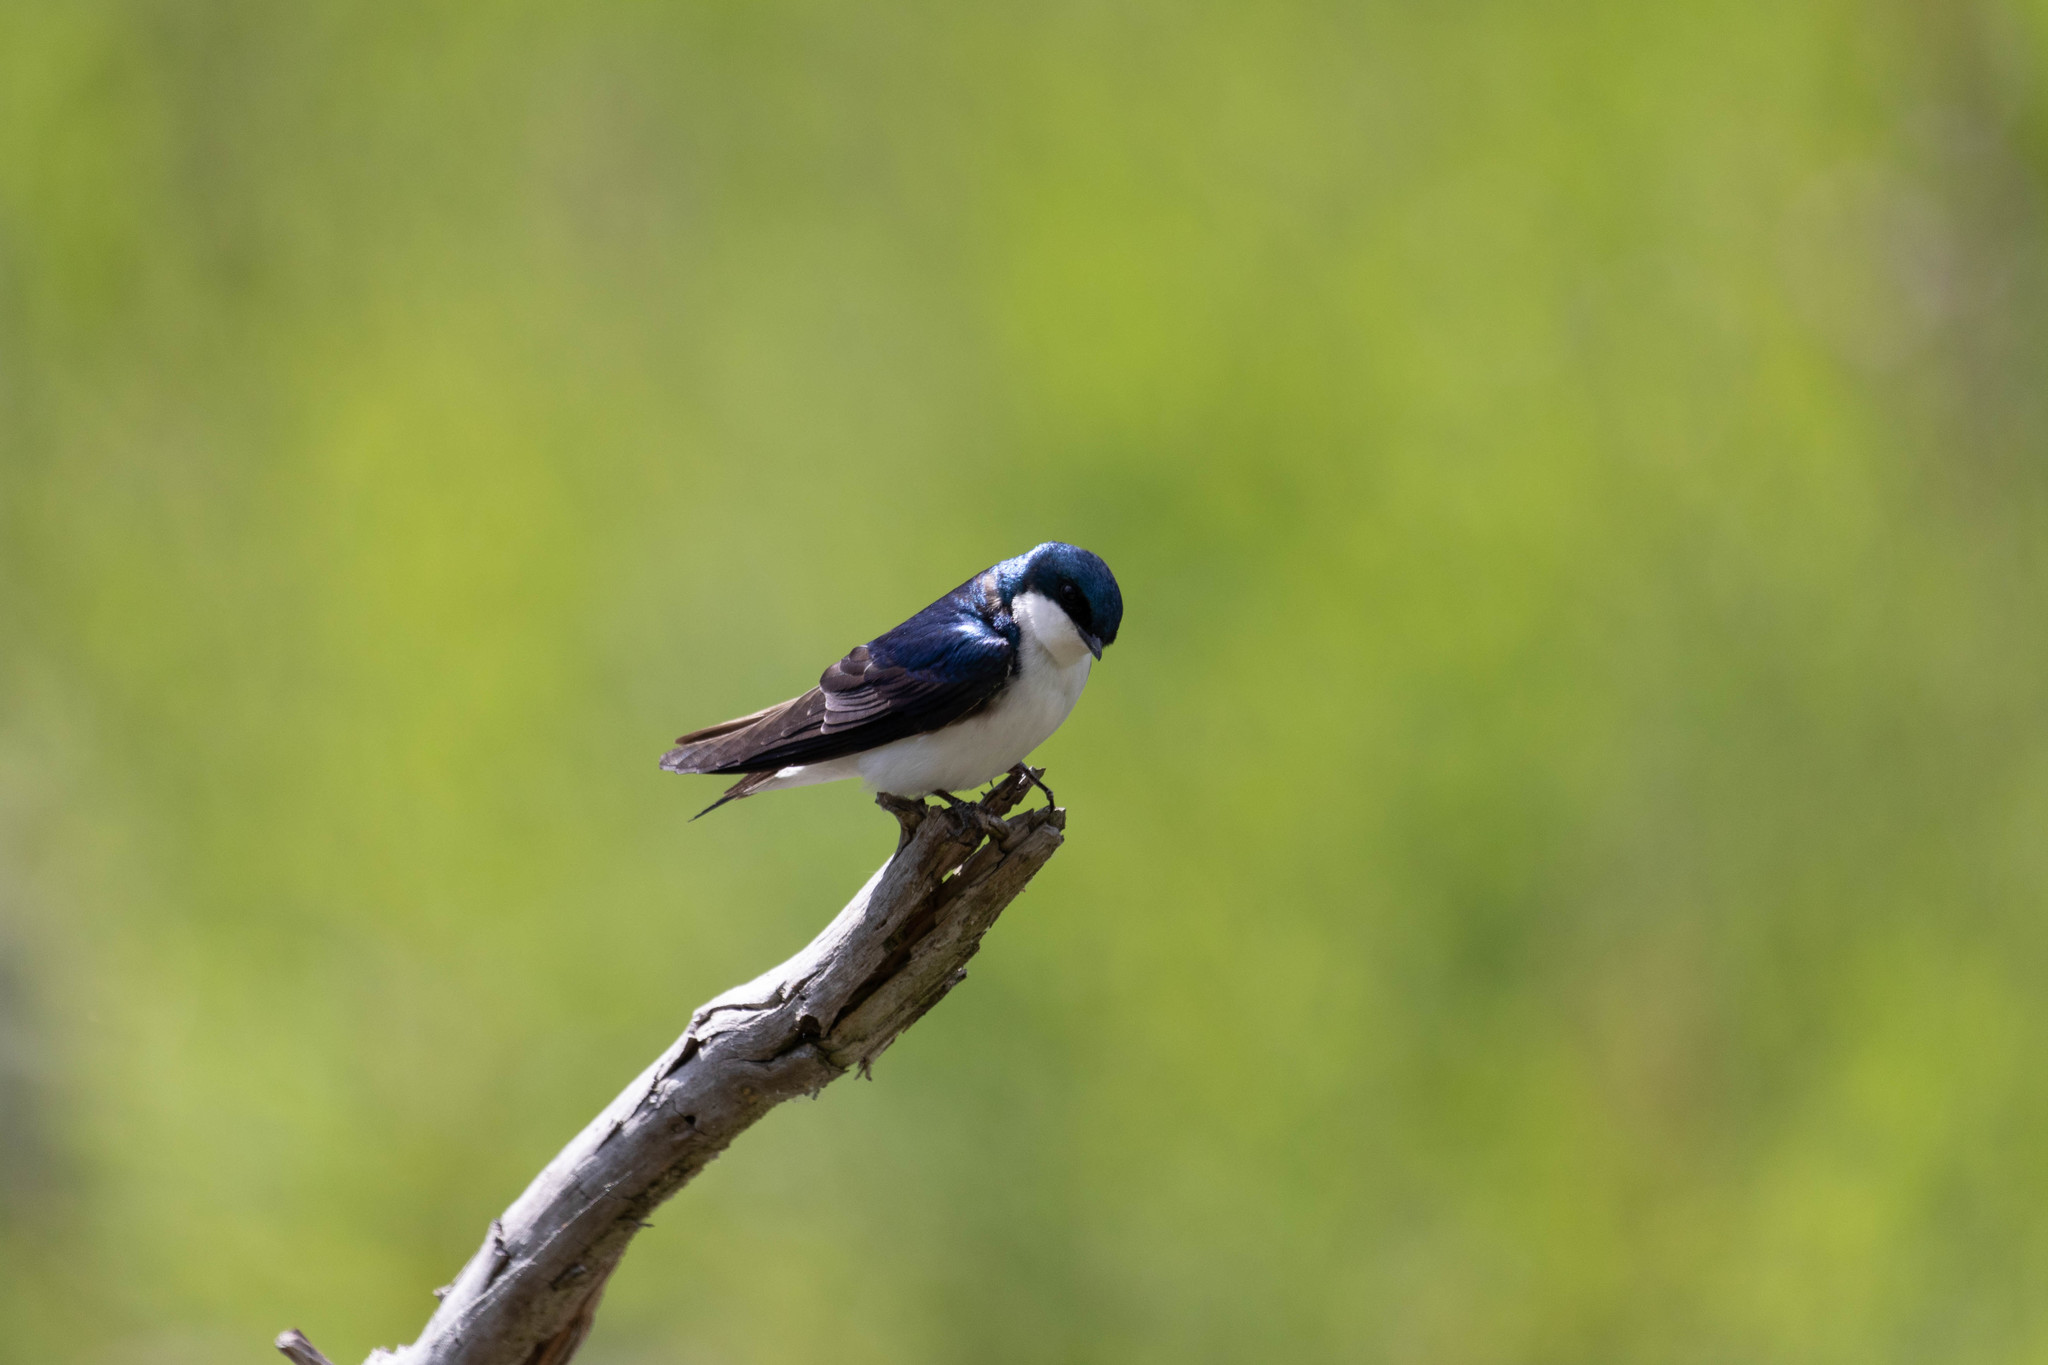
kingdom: Animalia
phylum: Chordata
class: Aves
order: Passeriformes
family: Hirundinidae
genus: Tachycineta
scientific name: Tachycineta bicolor
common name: Tree swallow
